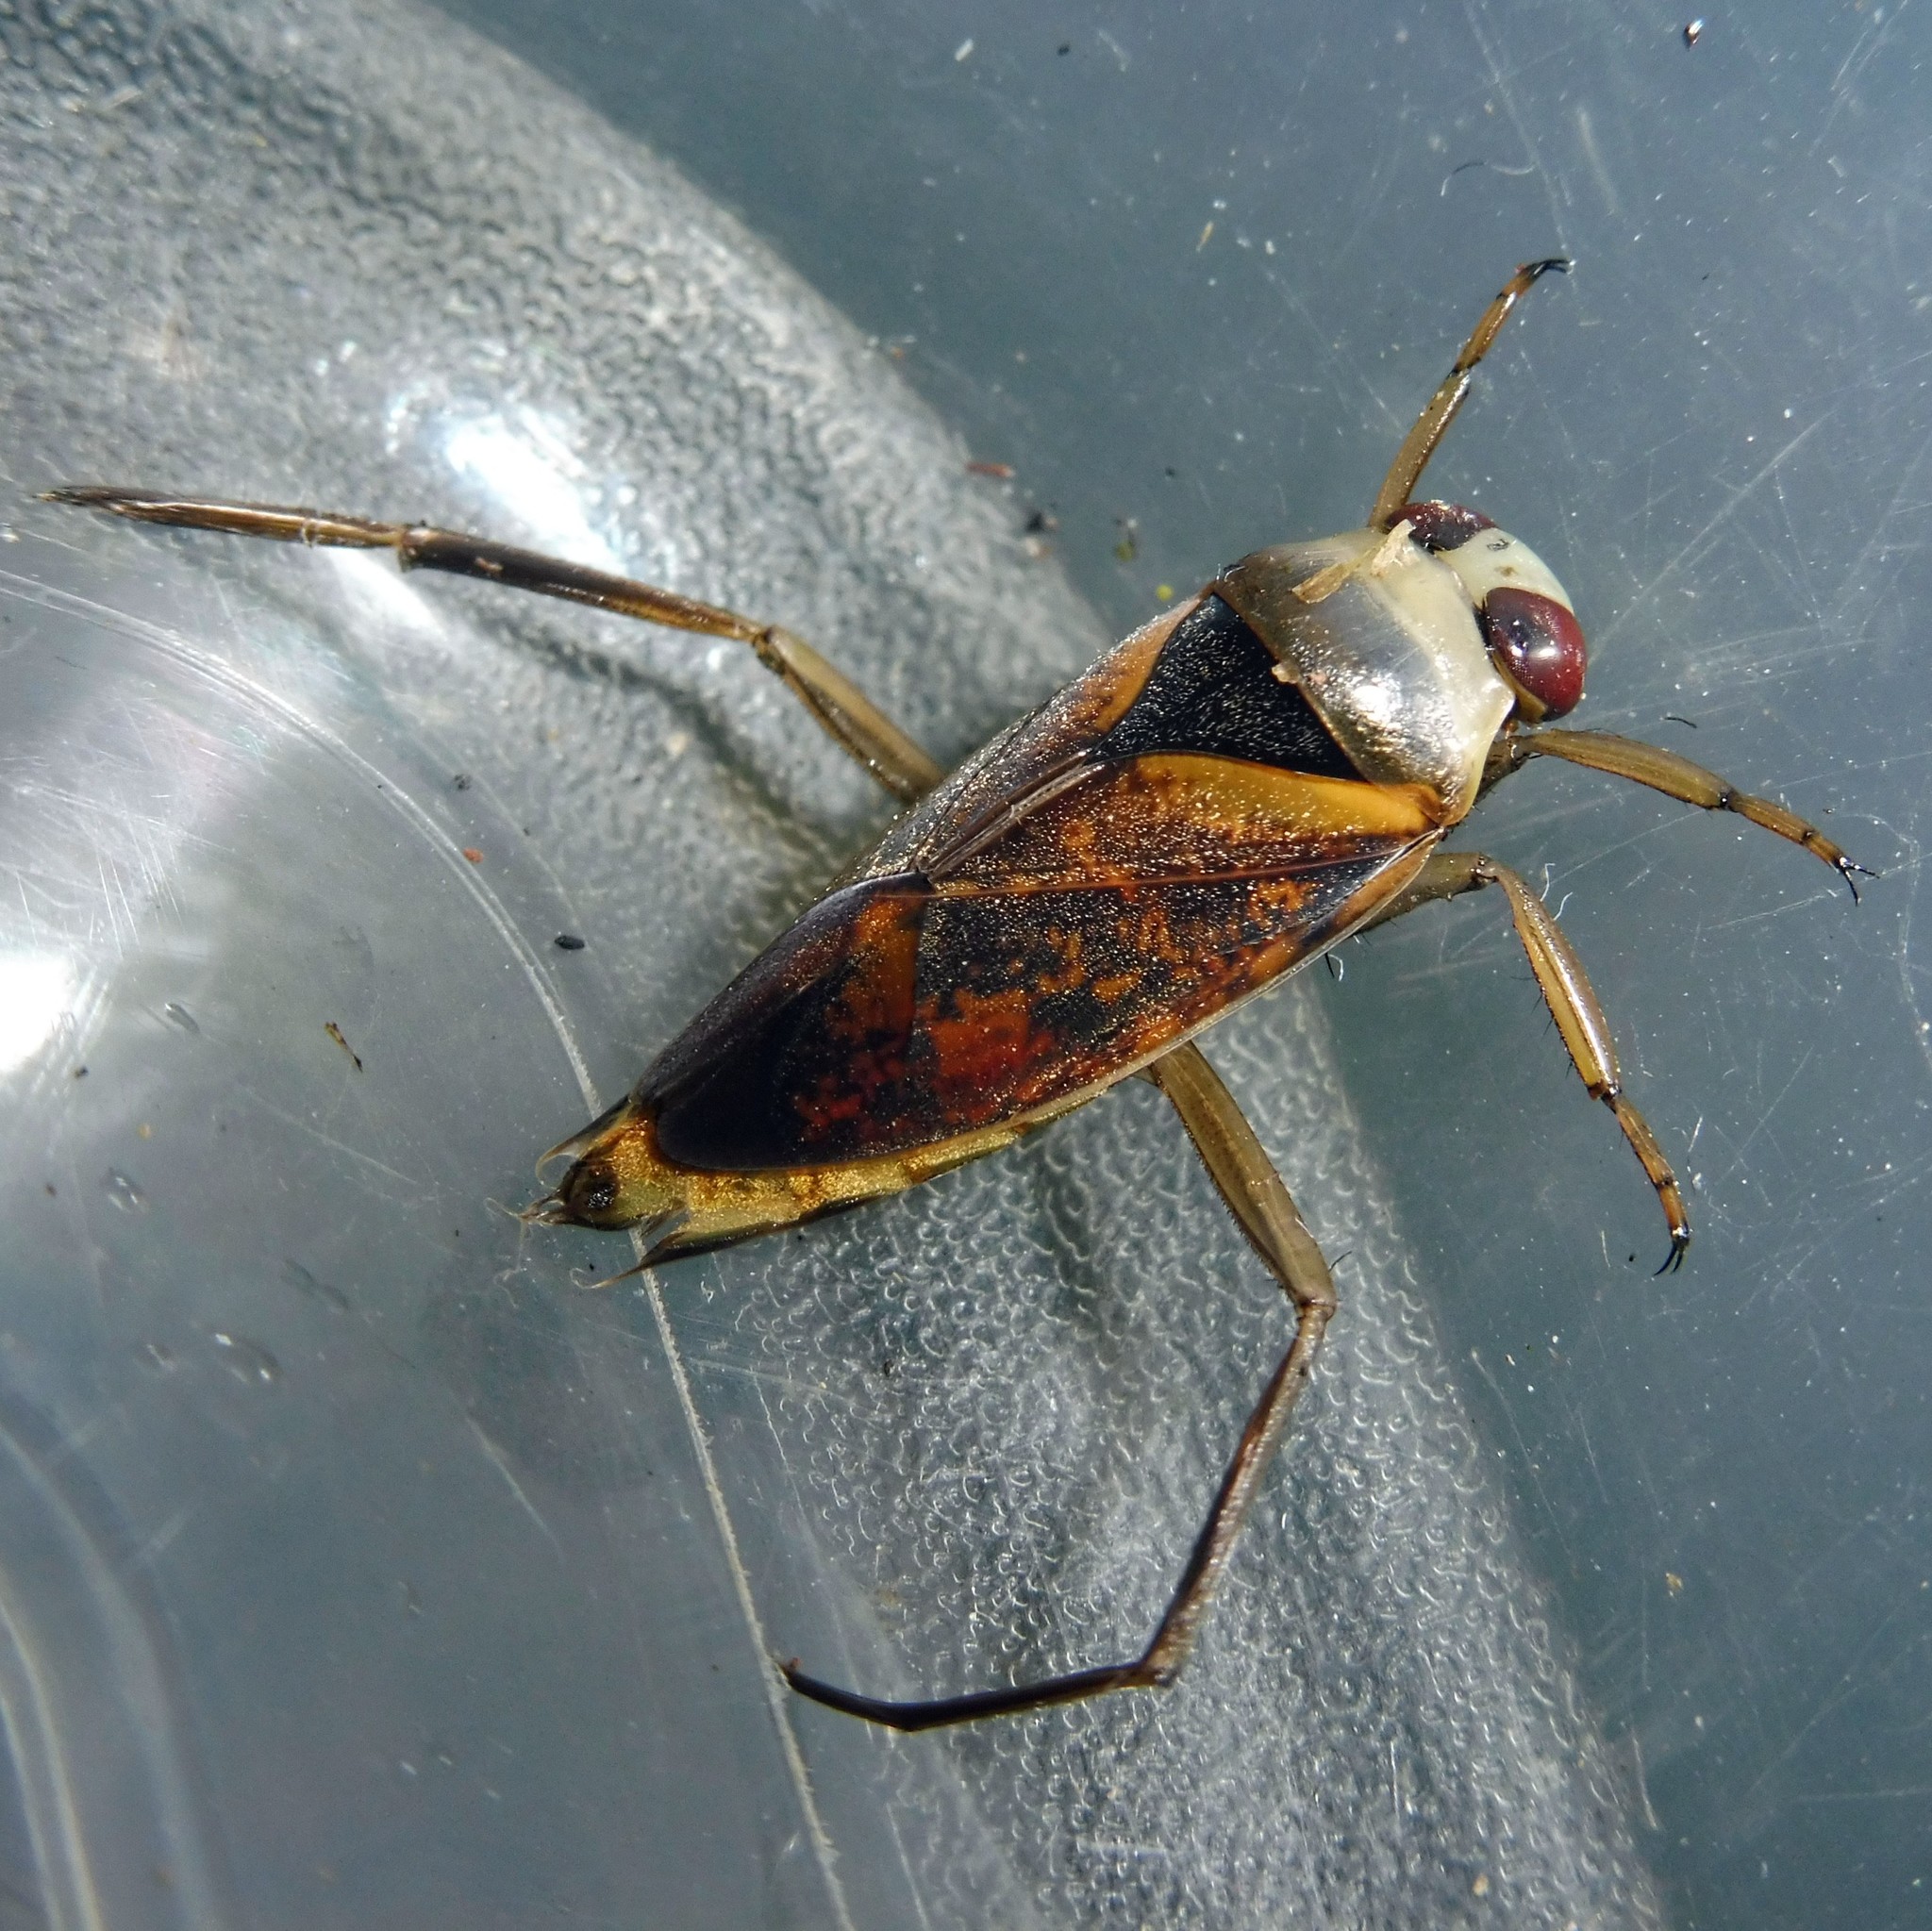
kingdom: Animalia
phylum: Arthropoda
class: Insecta
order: Hemiptera
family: Notonectidae
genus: Notonecta
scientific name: Notonecta maculata
